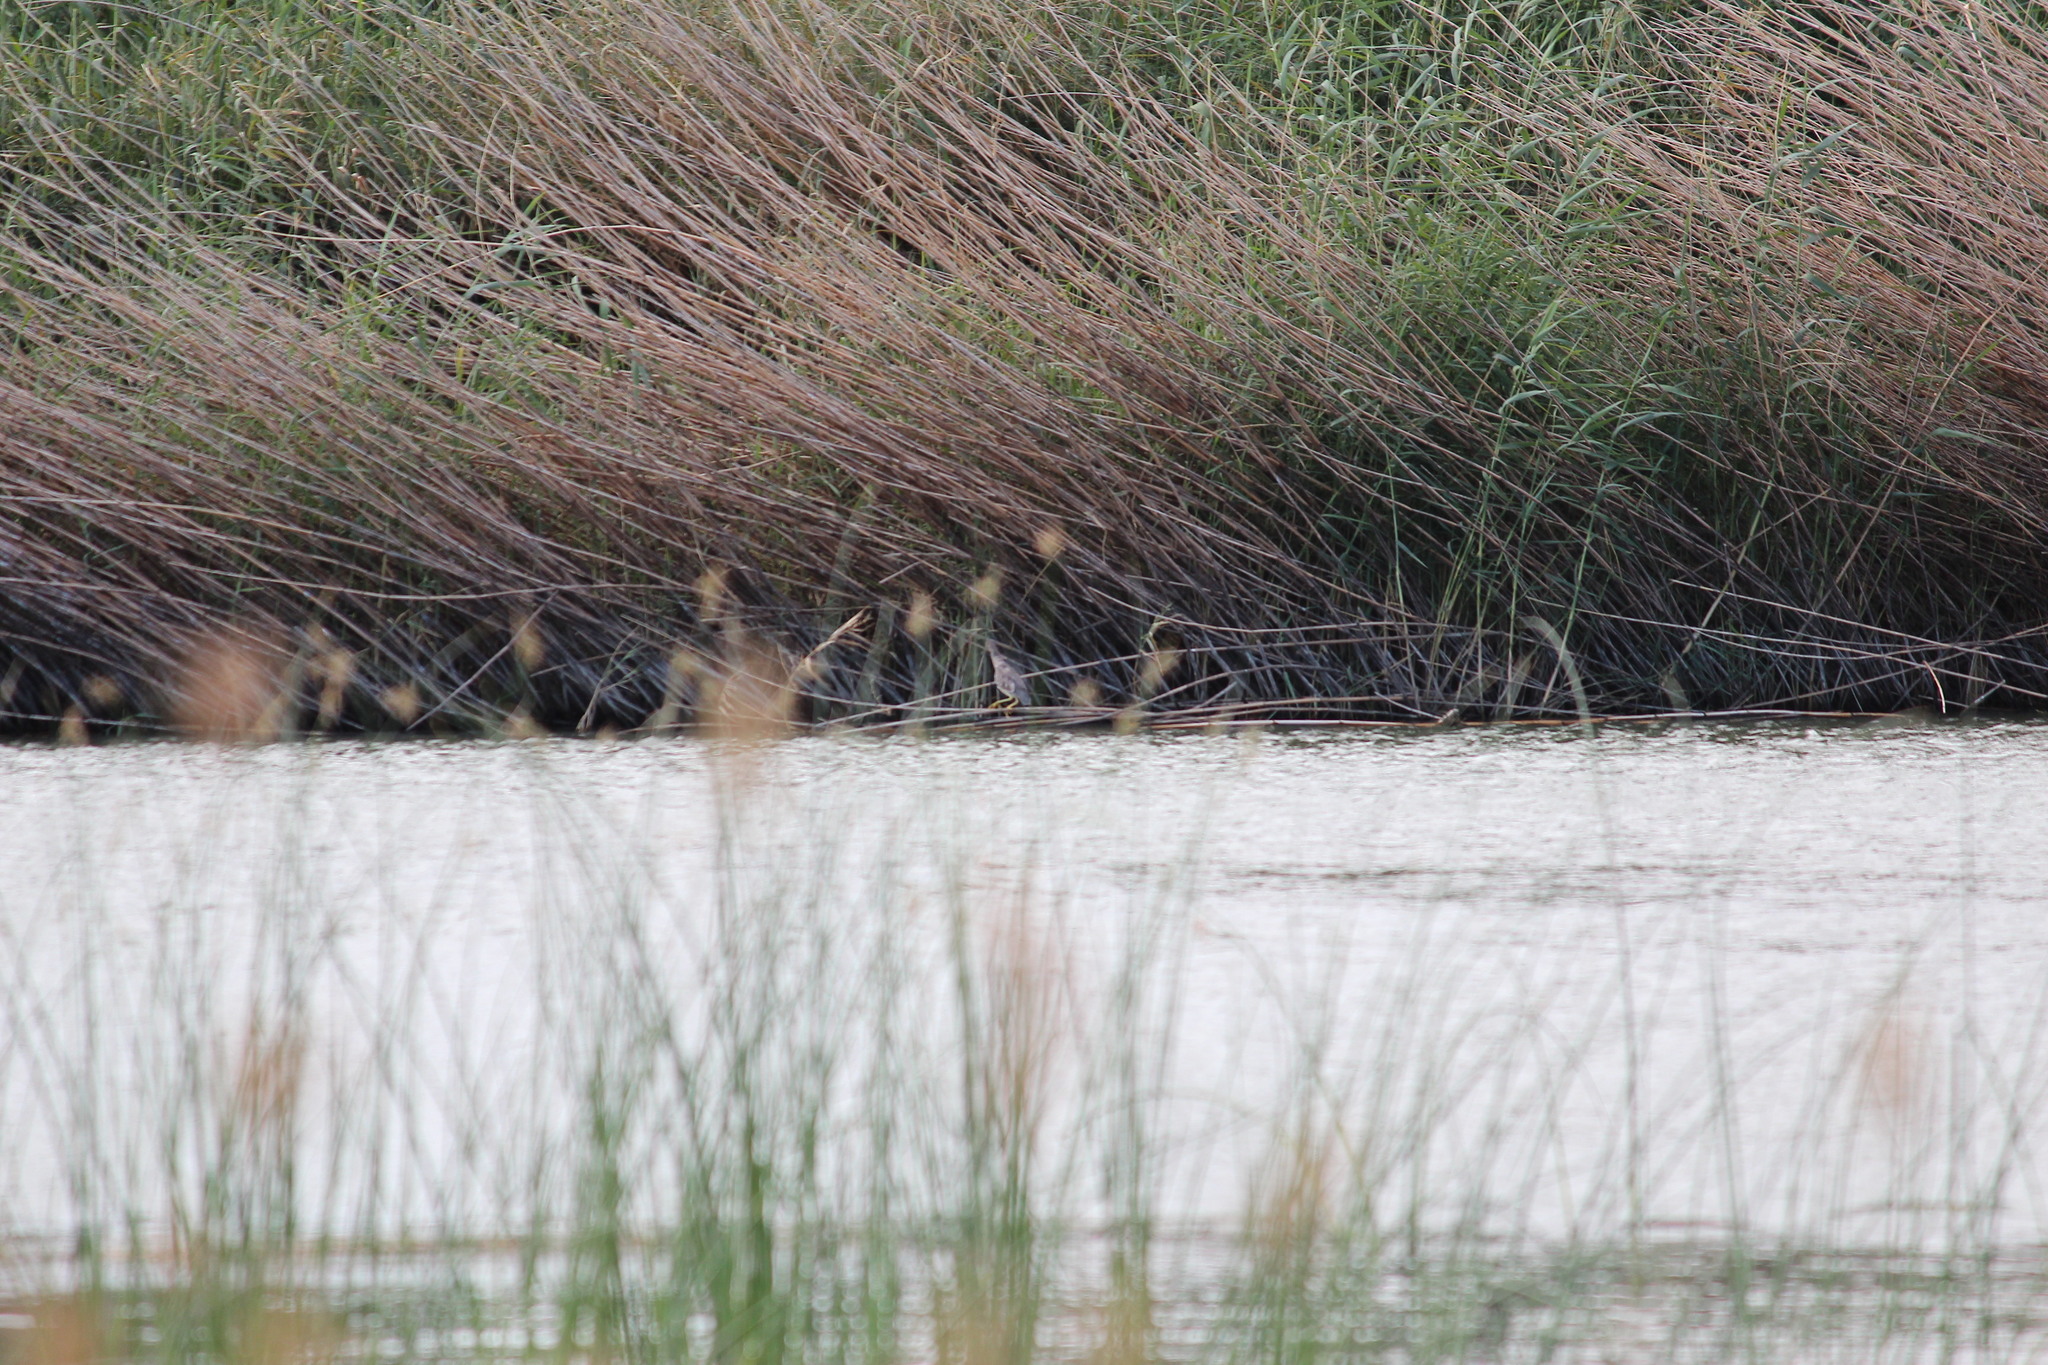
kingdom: Animalia
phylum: Chordata
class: Aves
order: Pelecaniformes
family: Ardeidae
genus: Nycticorax
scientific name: Nycticorax nycticorax
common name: Black-crowned night heron
